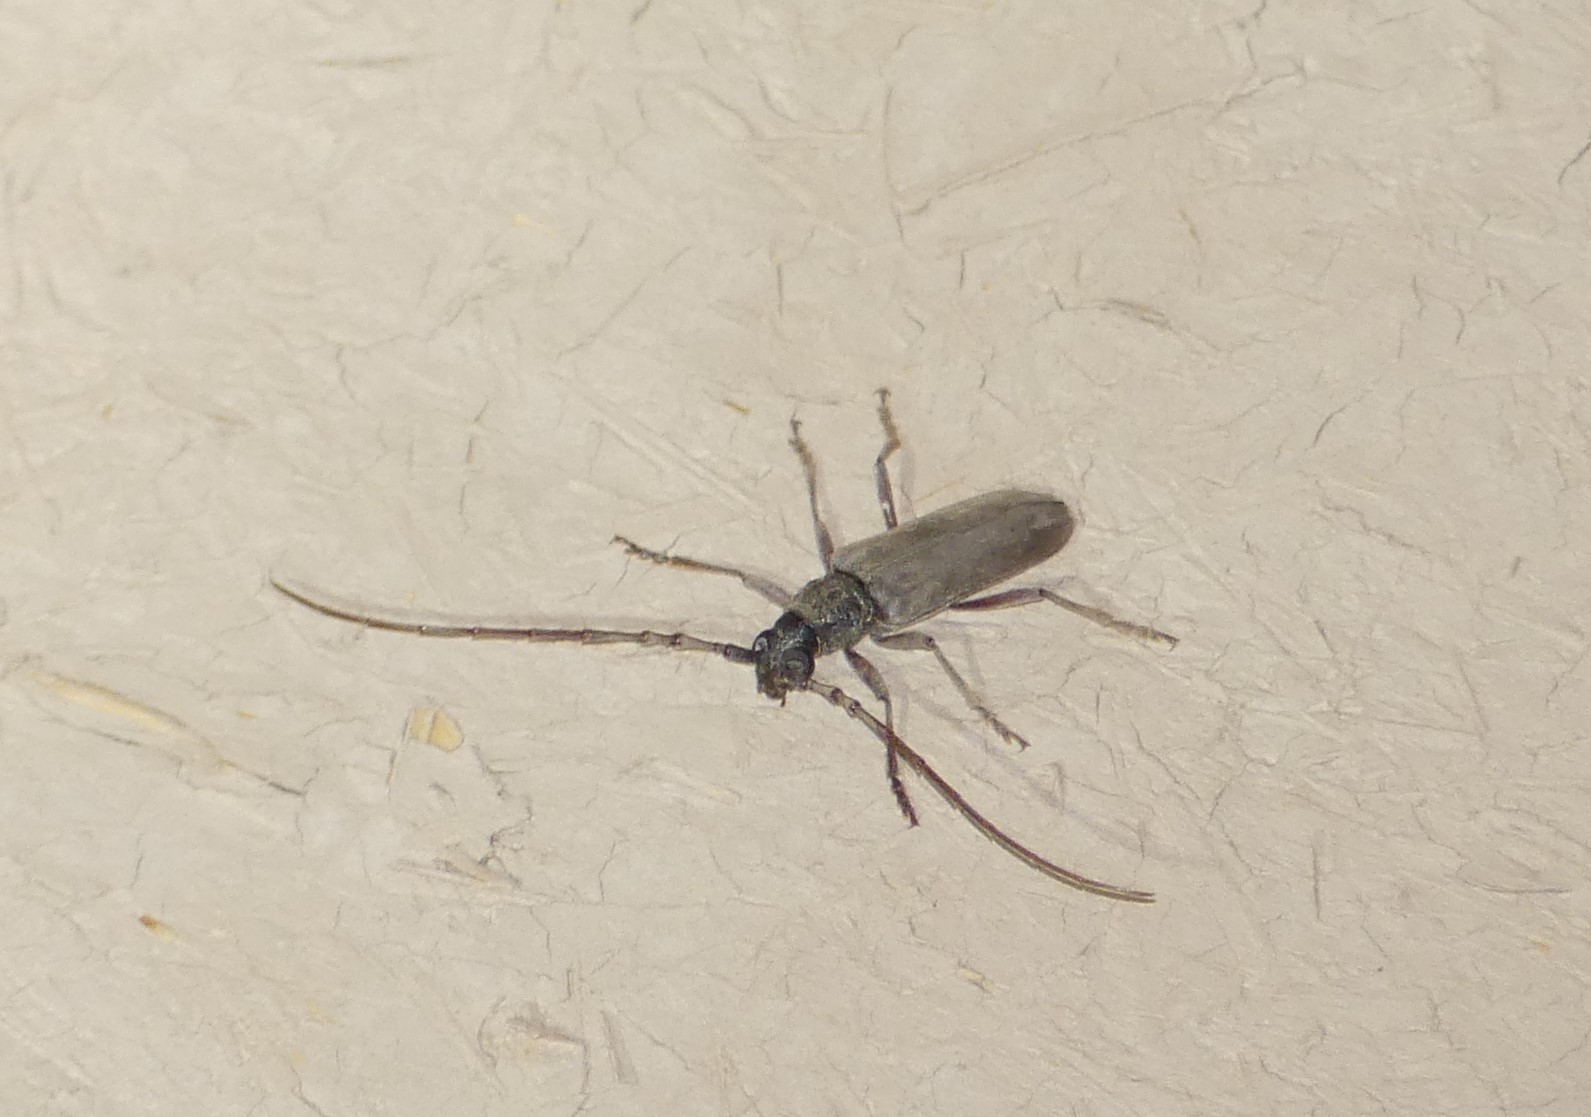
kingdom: Animalia
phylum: Arthropoda
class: Insecta
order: Coleoptera
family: Cerambycidae
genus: Derolus
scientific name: Derolus mauritanicus
